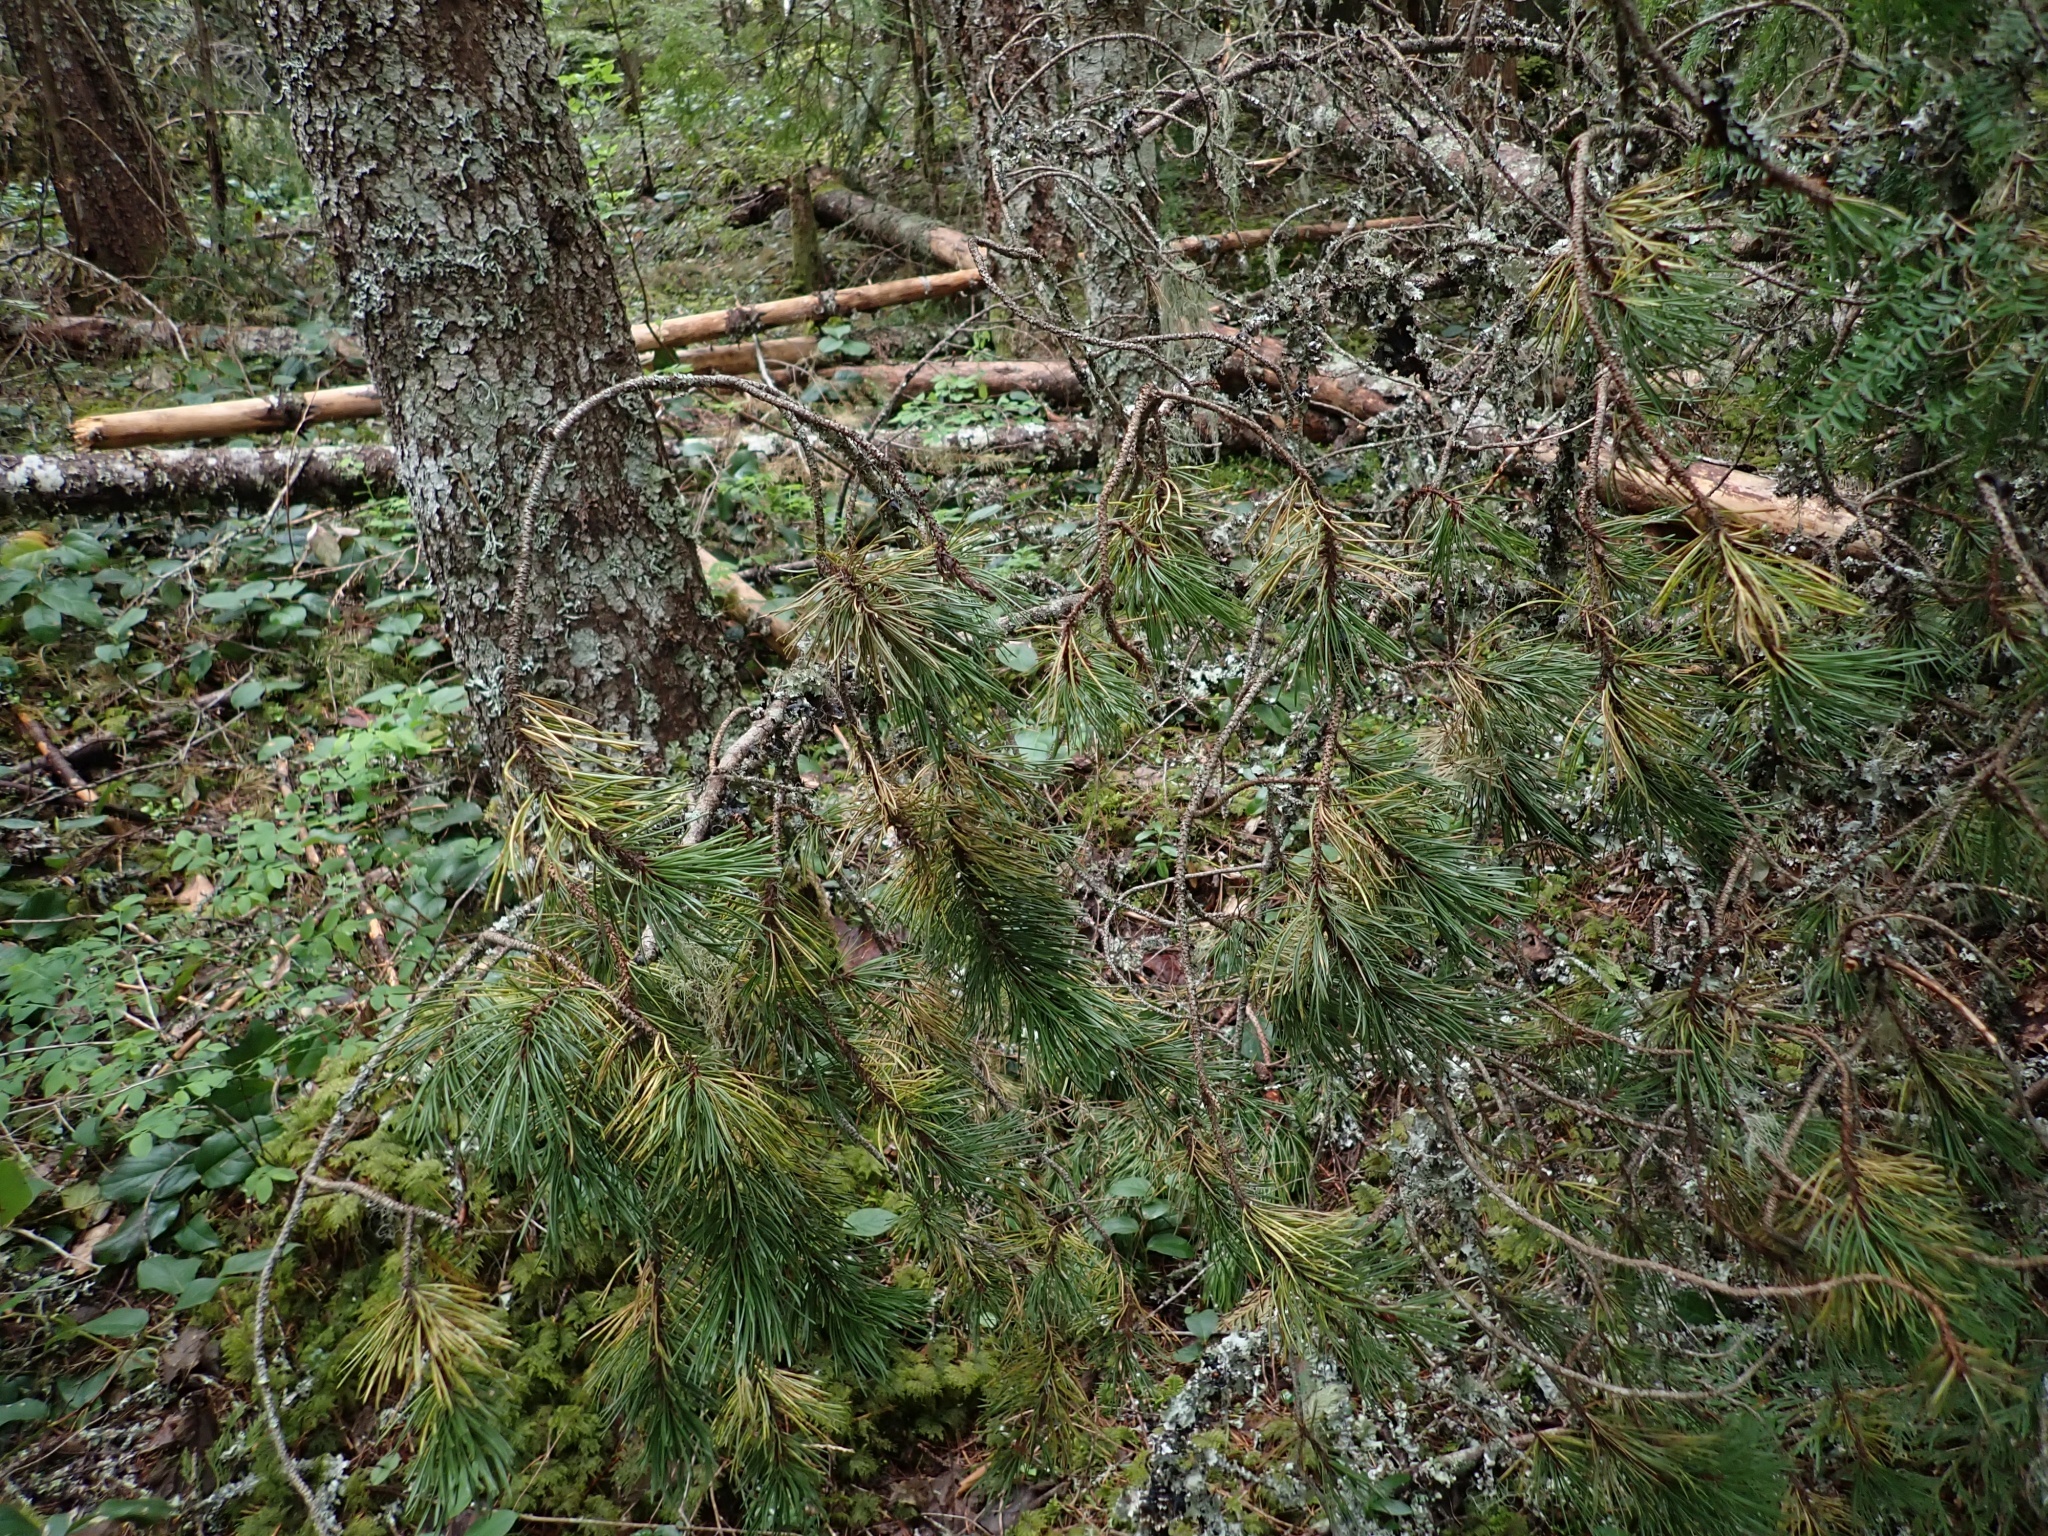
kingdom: Plantae
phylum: Tracheophyta
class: Pinopsida
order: Pinales
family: Pinaceae
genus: Pinus
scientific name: Pinus contorta
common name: Lodgepole pine
